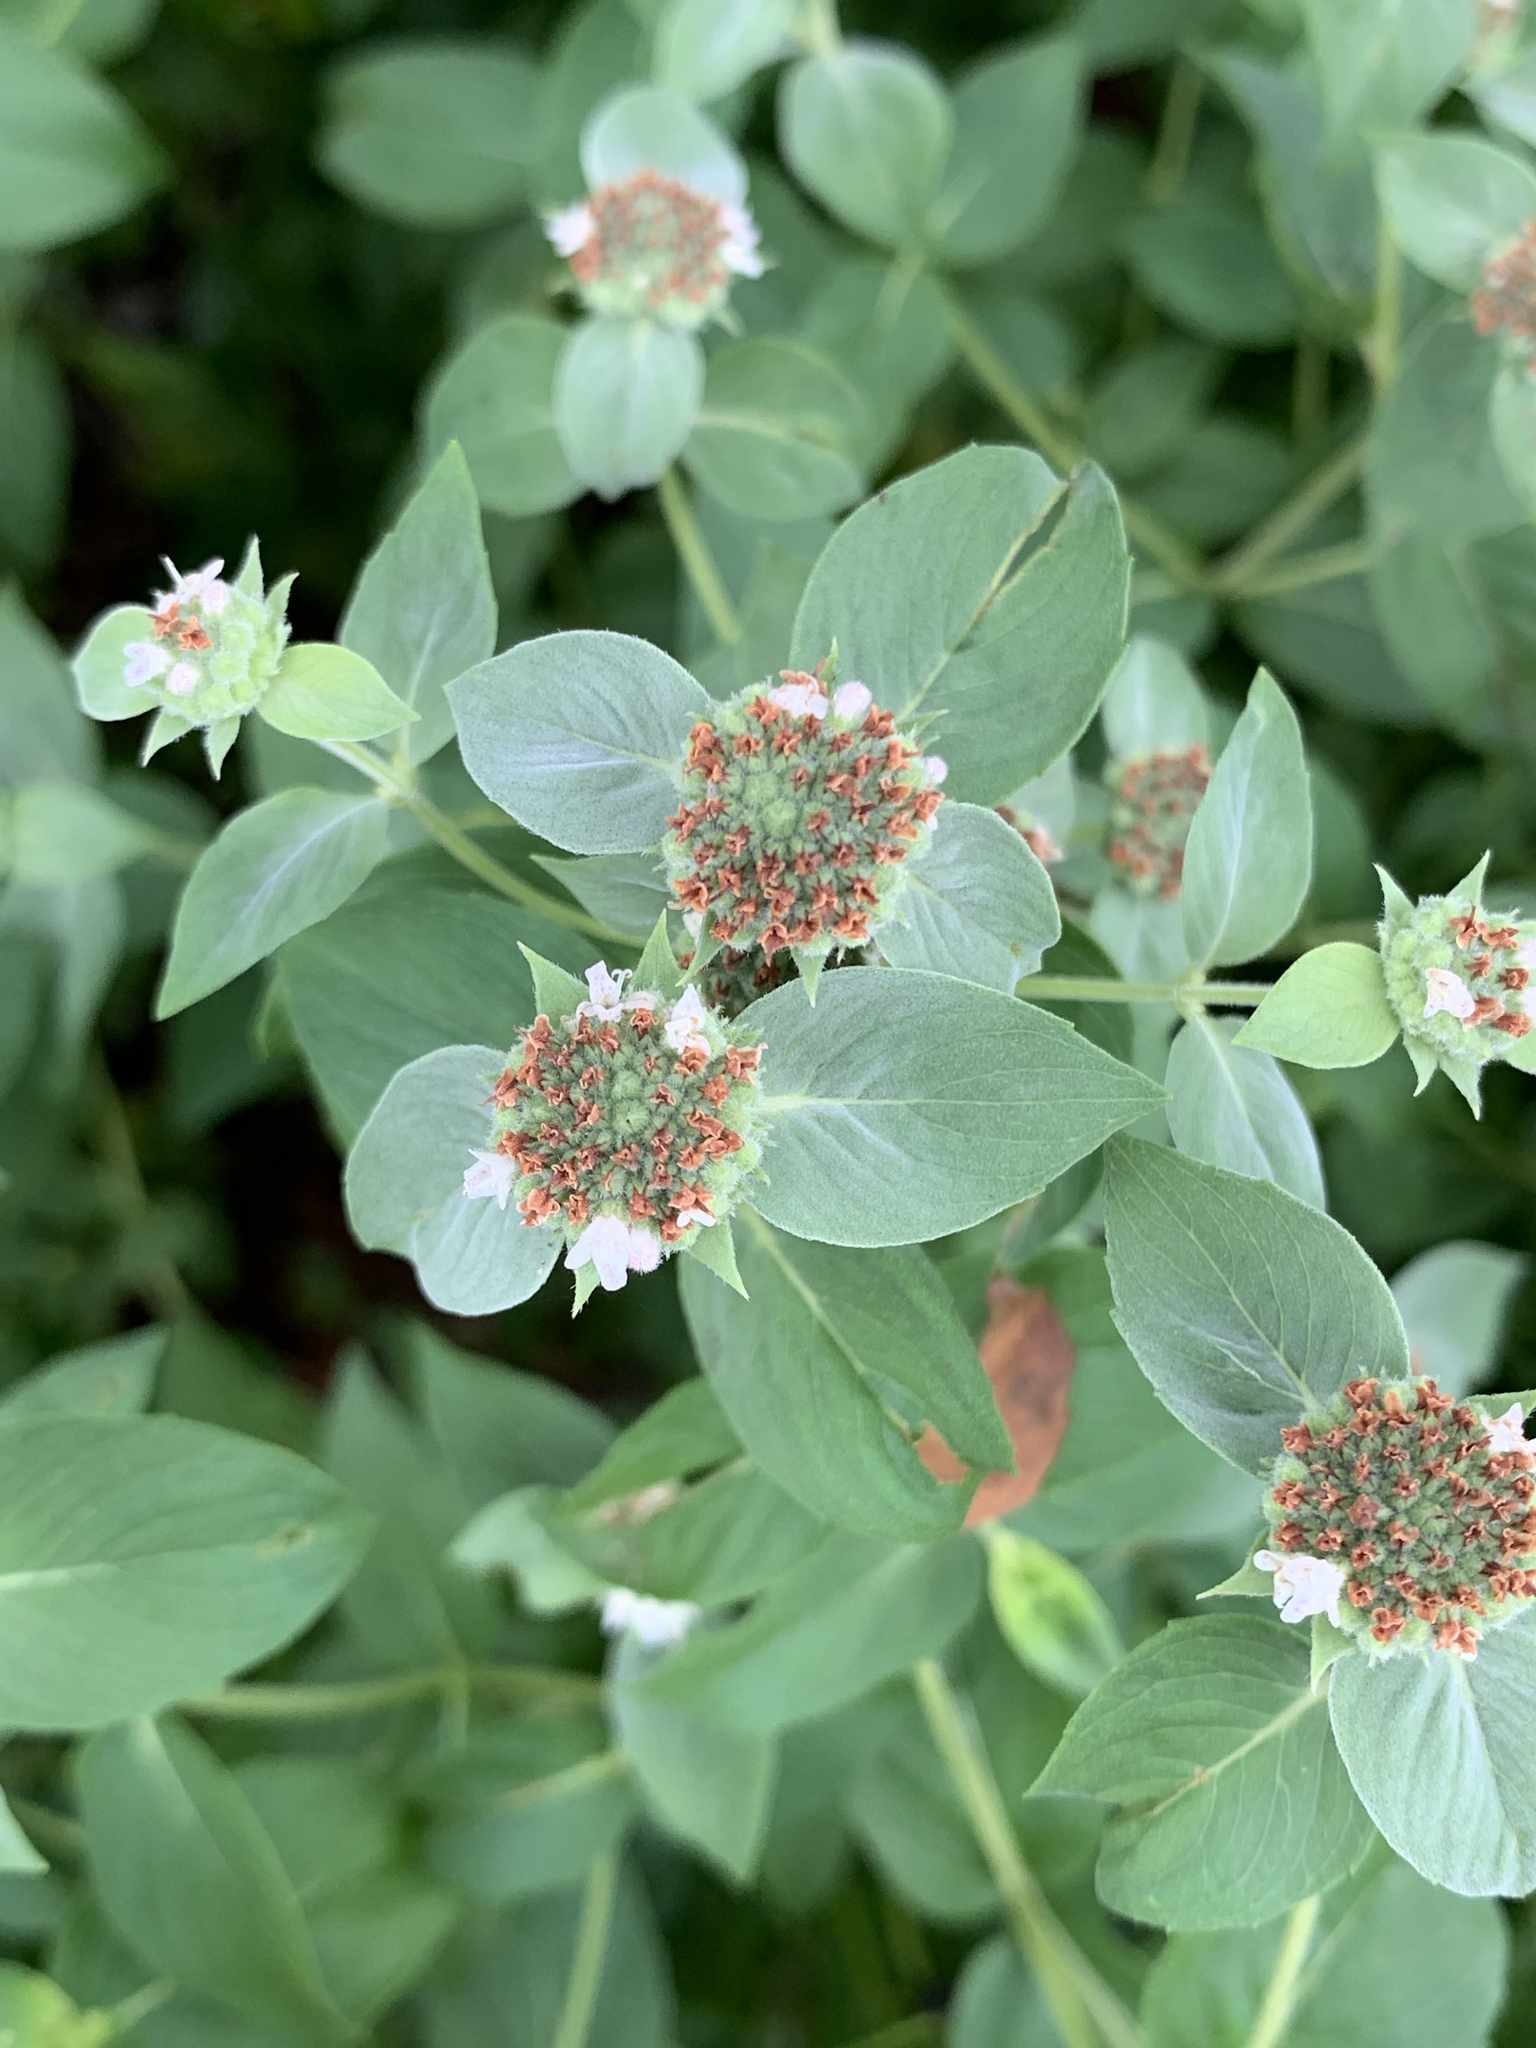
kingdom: Plantae
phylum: Tracheophyta
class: Magnoliopsida
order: Lamiales
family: Lamiaceae
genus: Pycnanthemum
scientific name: Pycnanthemum muticum
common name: Blunt mountain-mint
